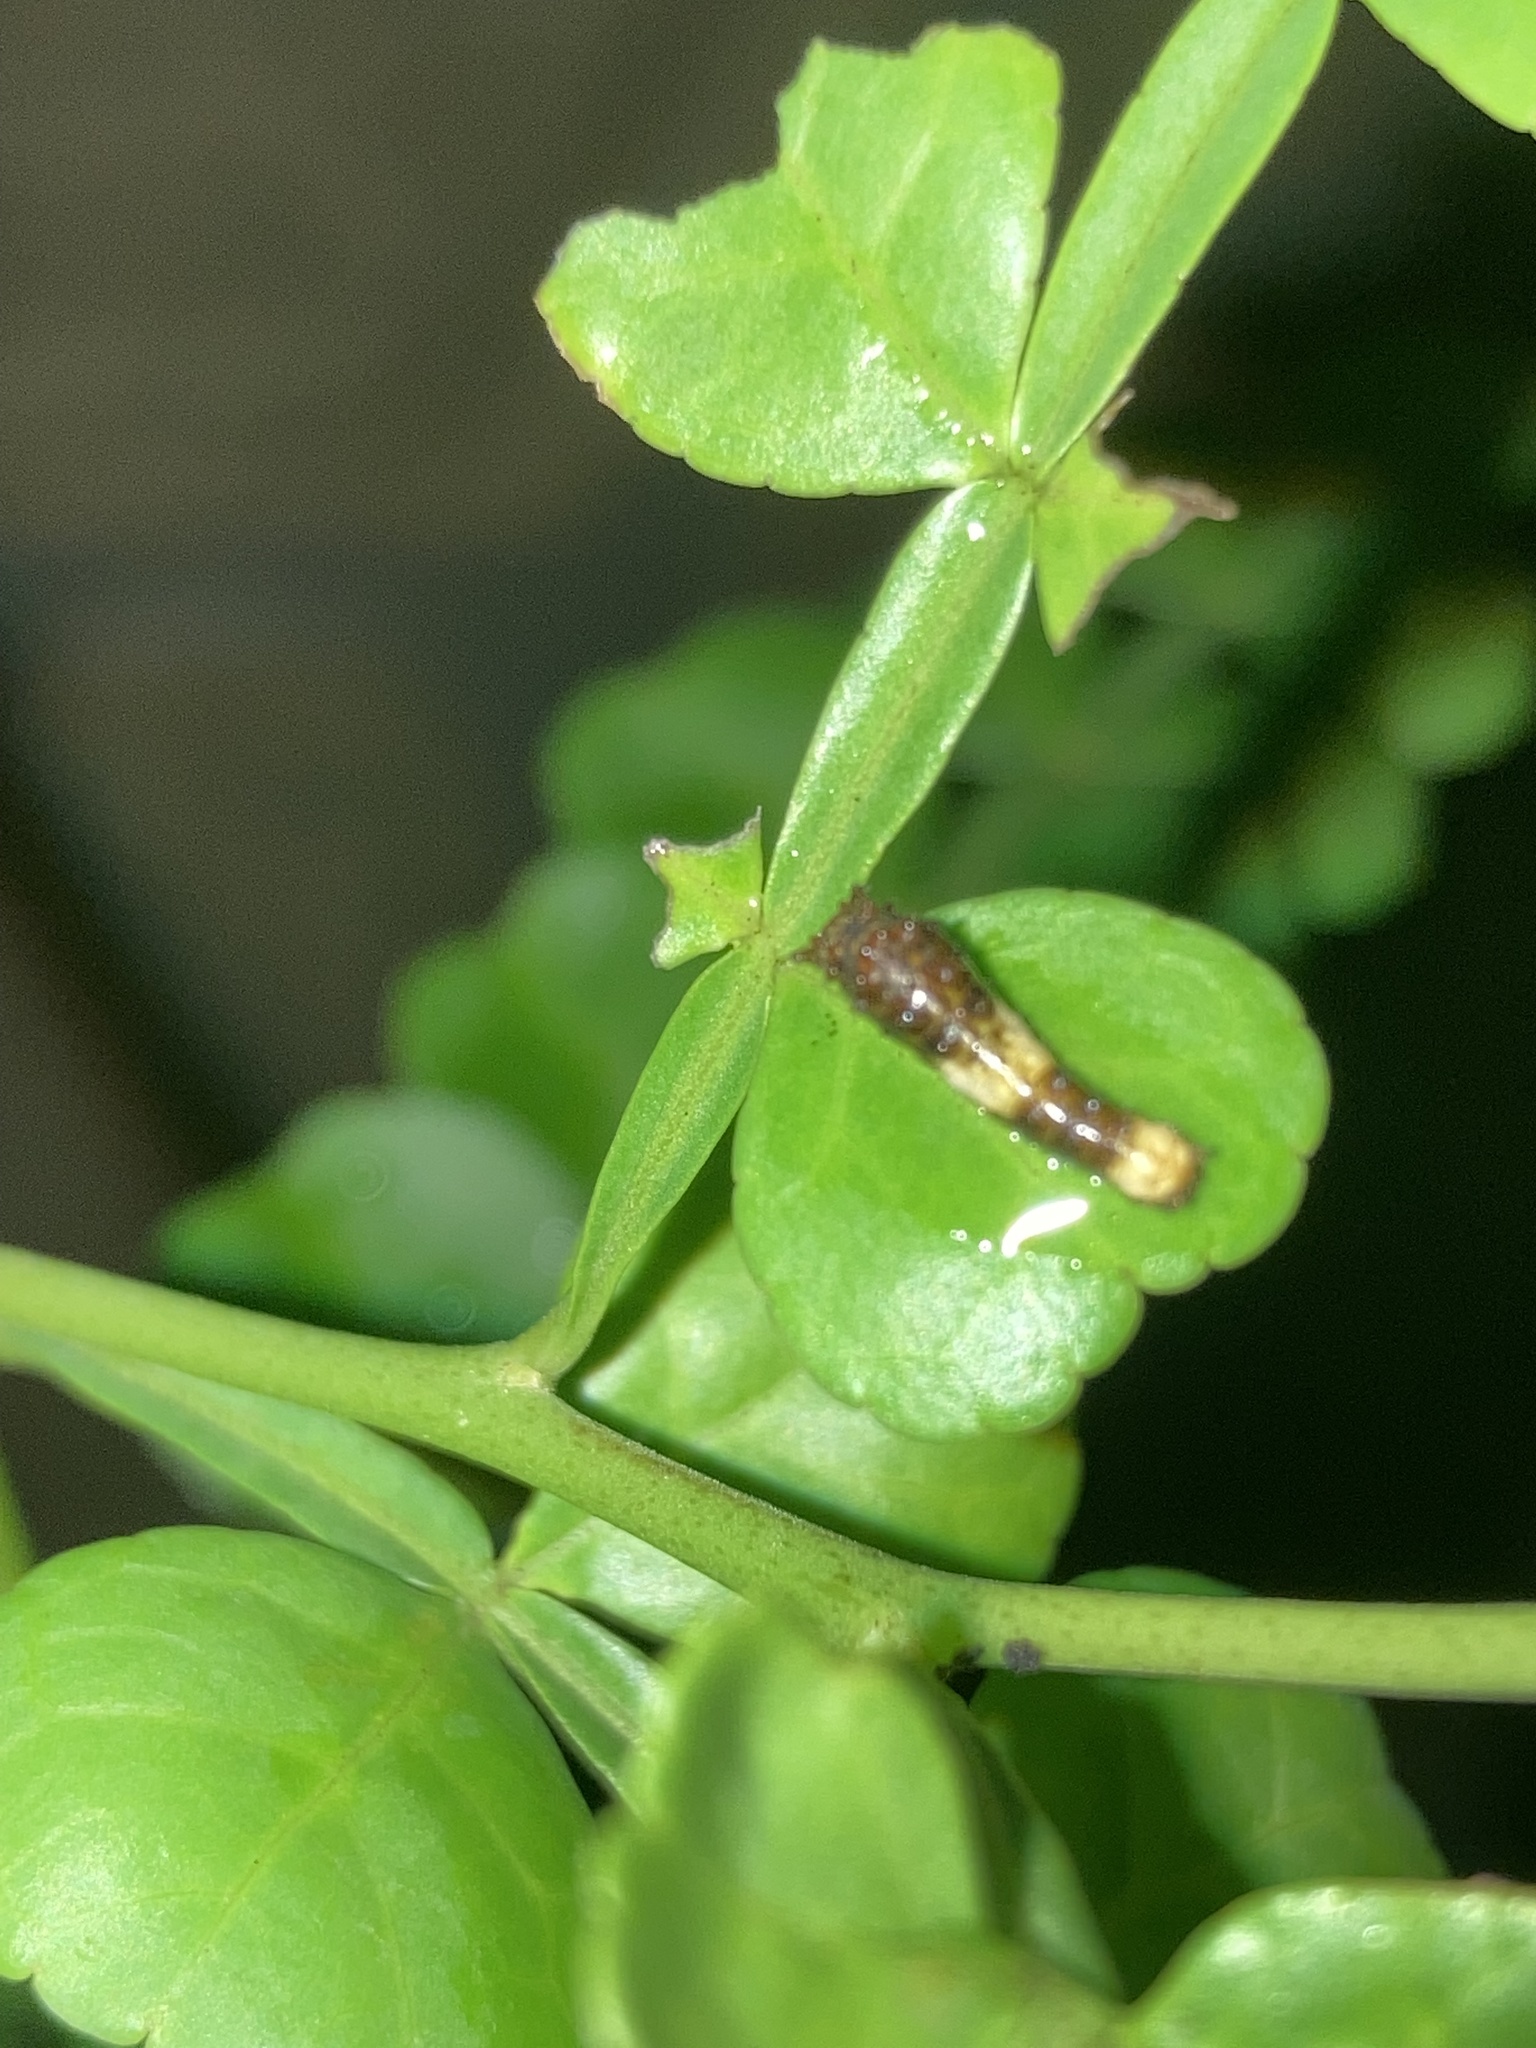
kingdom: Animalia
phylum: Arthropoda
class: Insecta
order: Lepidoptera
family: Papilionidae
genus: Papilio
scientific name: Papilio cresphontes
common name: Giant swallowtail
